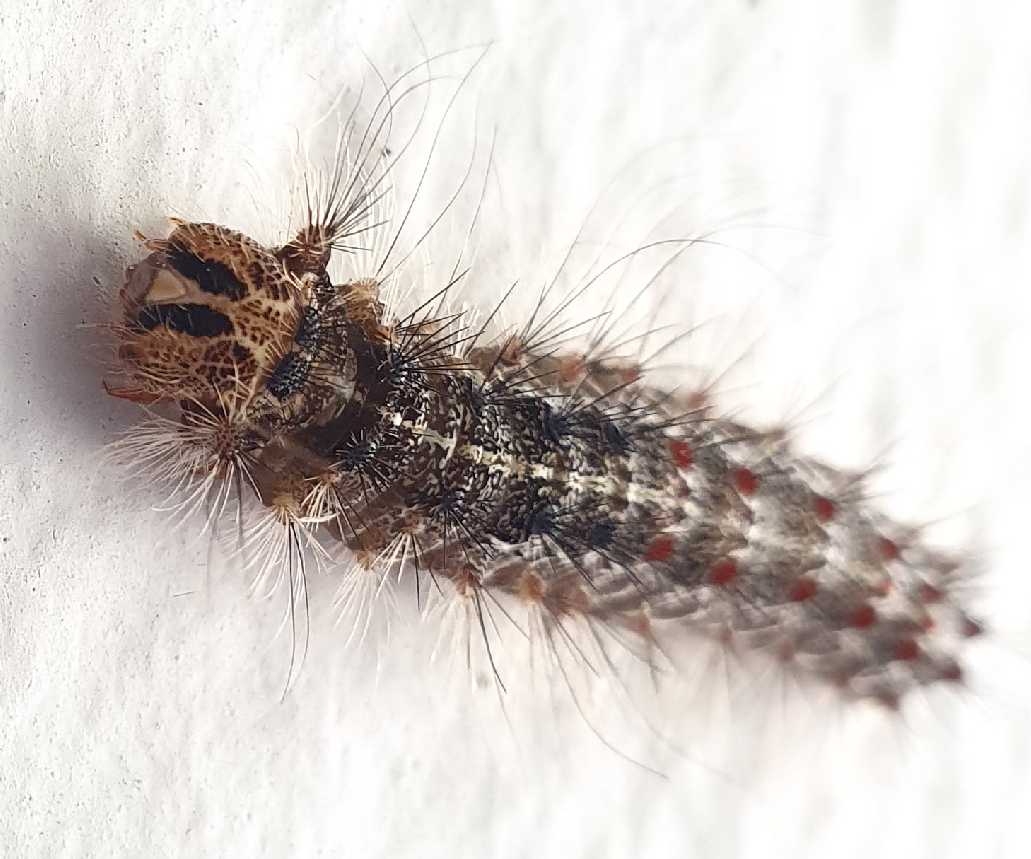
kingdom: Animalia
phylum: Arthropoda
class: Insecta
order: Lepidoptera
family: Erebidae
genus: Lymantria
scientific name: Lymantria dispar
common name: Gypsy moth
